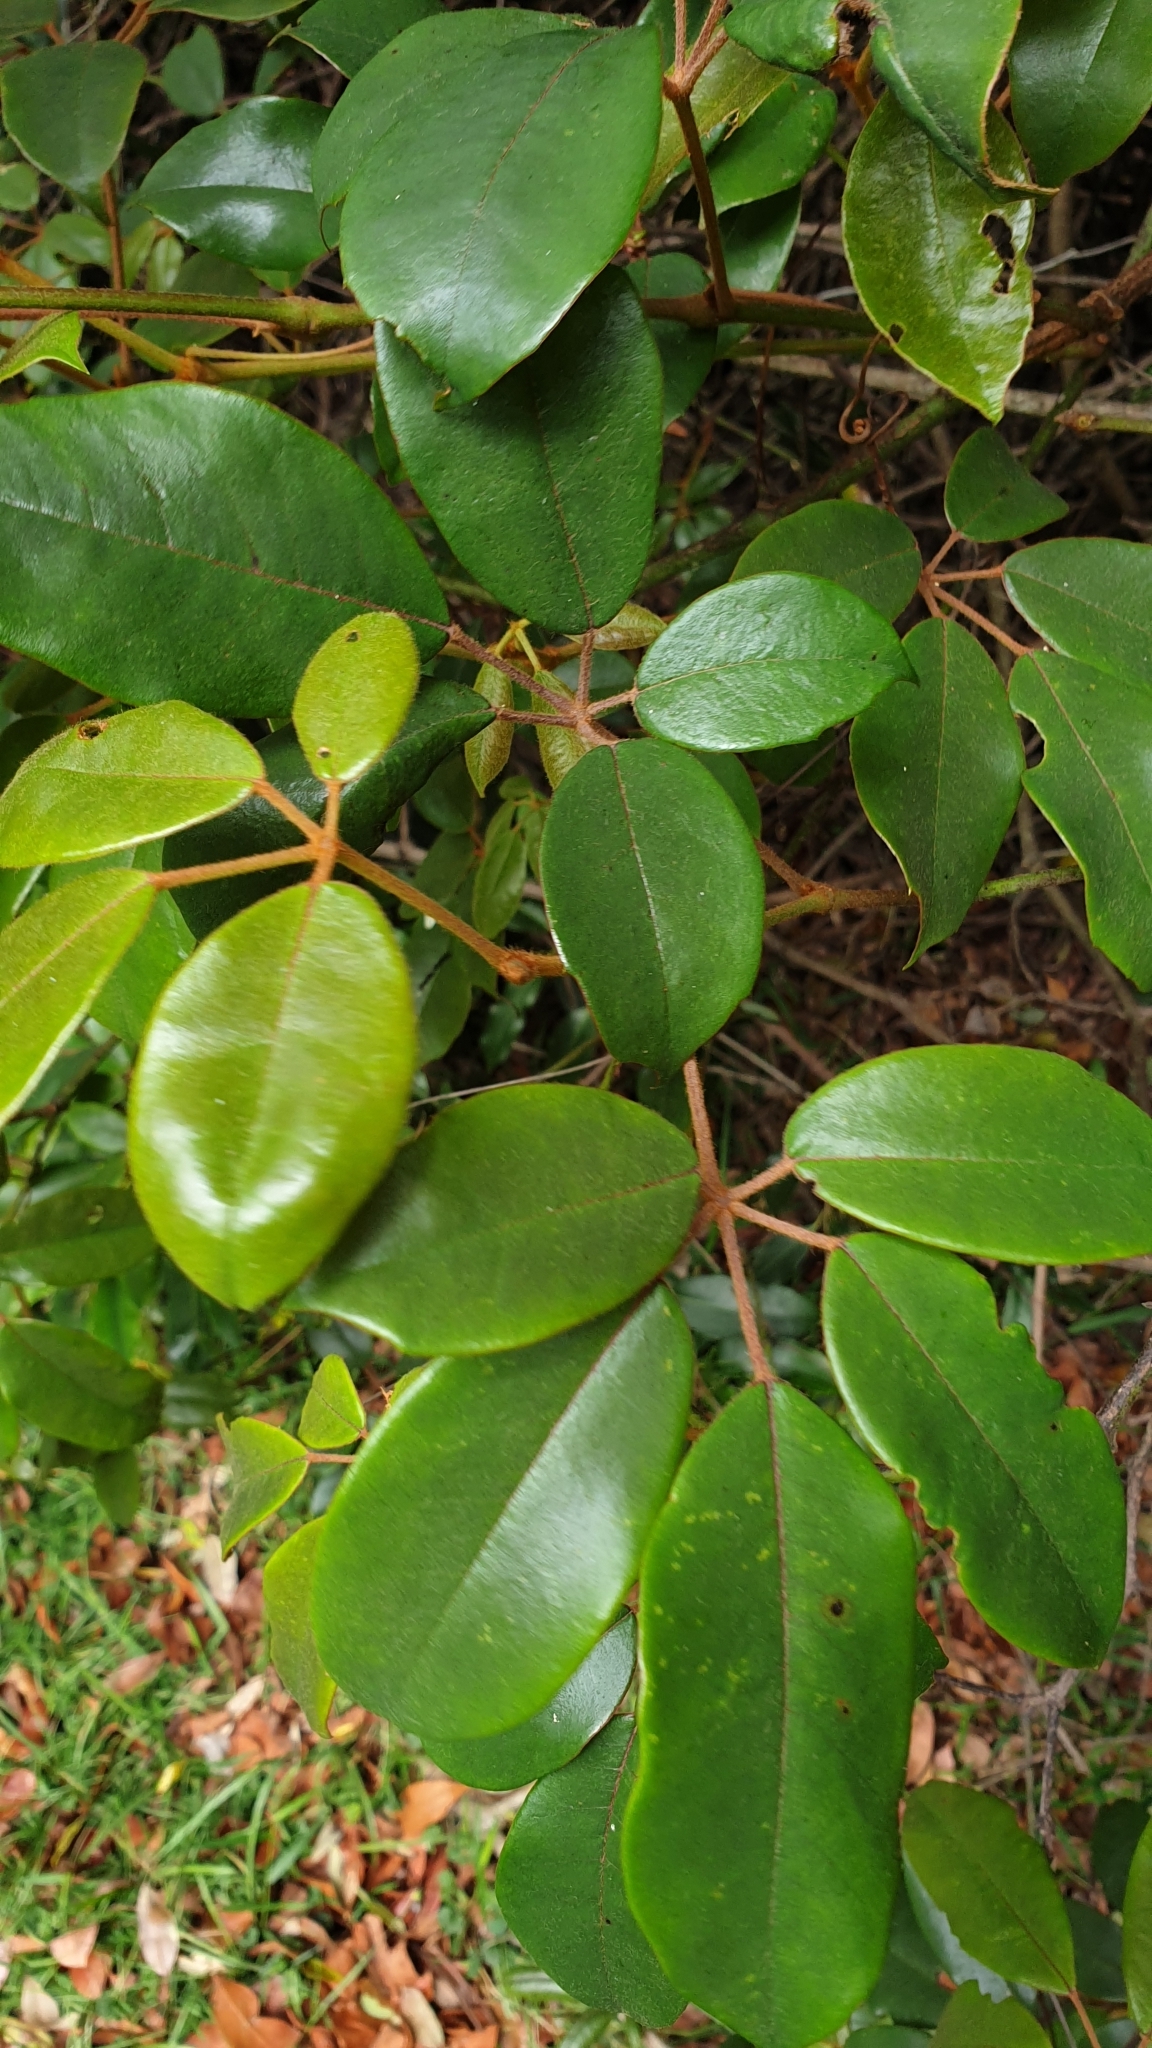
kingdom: Plantae
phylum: Tracheophyta
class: Magnoliopsida
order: Vitales
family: Vitaceae
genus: Nothocissus
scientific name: Nothocissus hypoglauca
